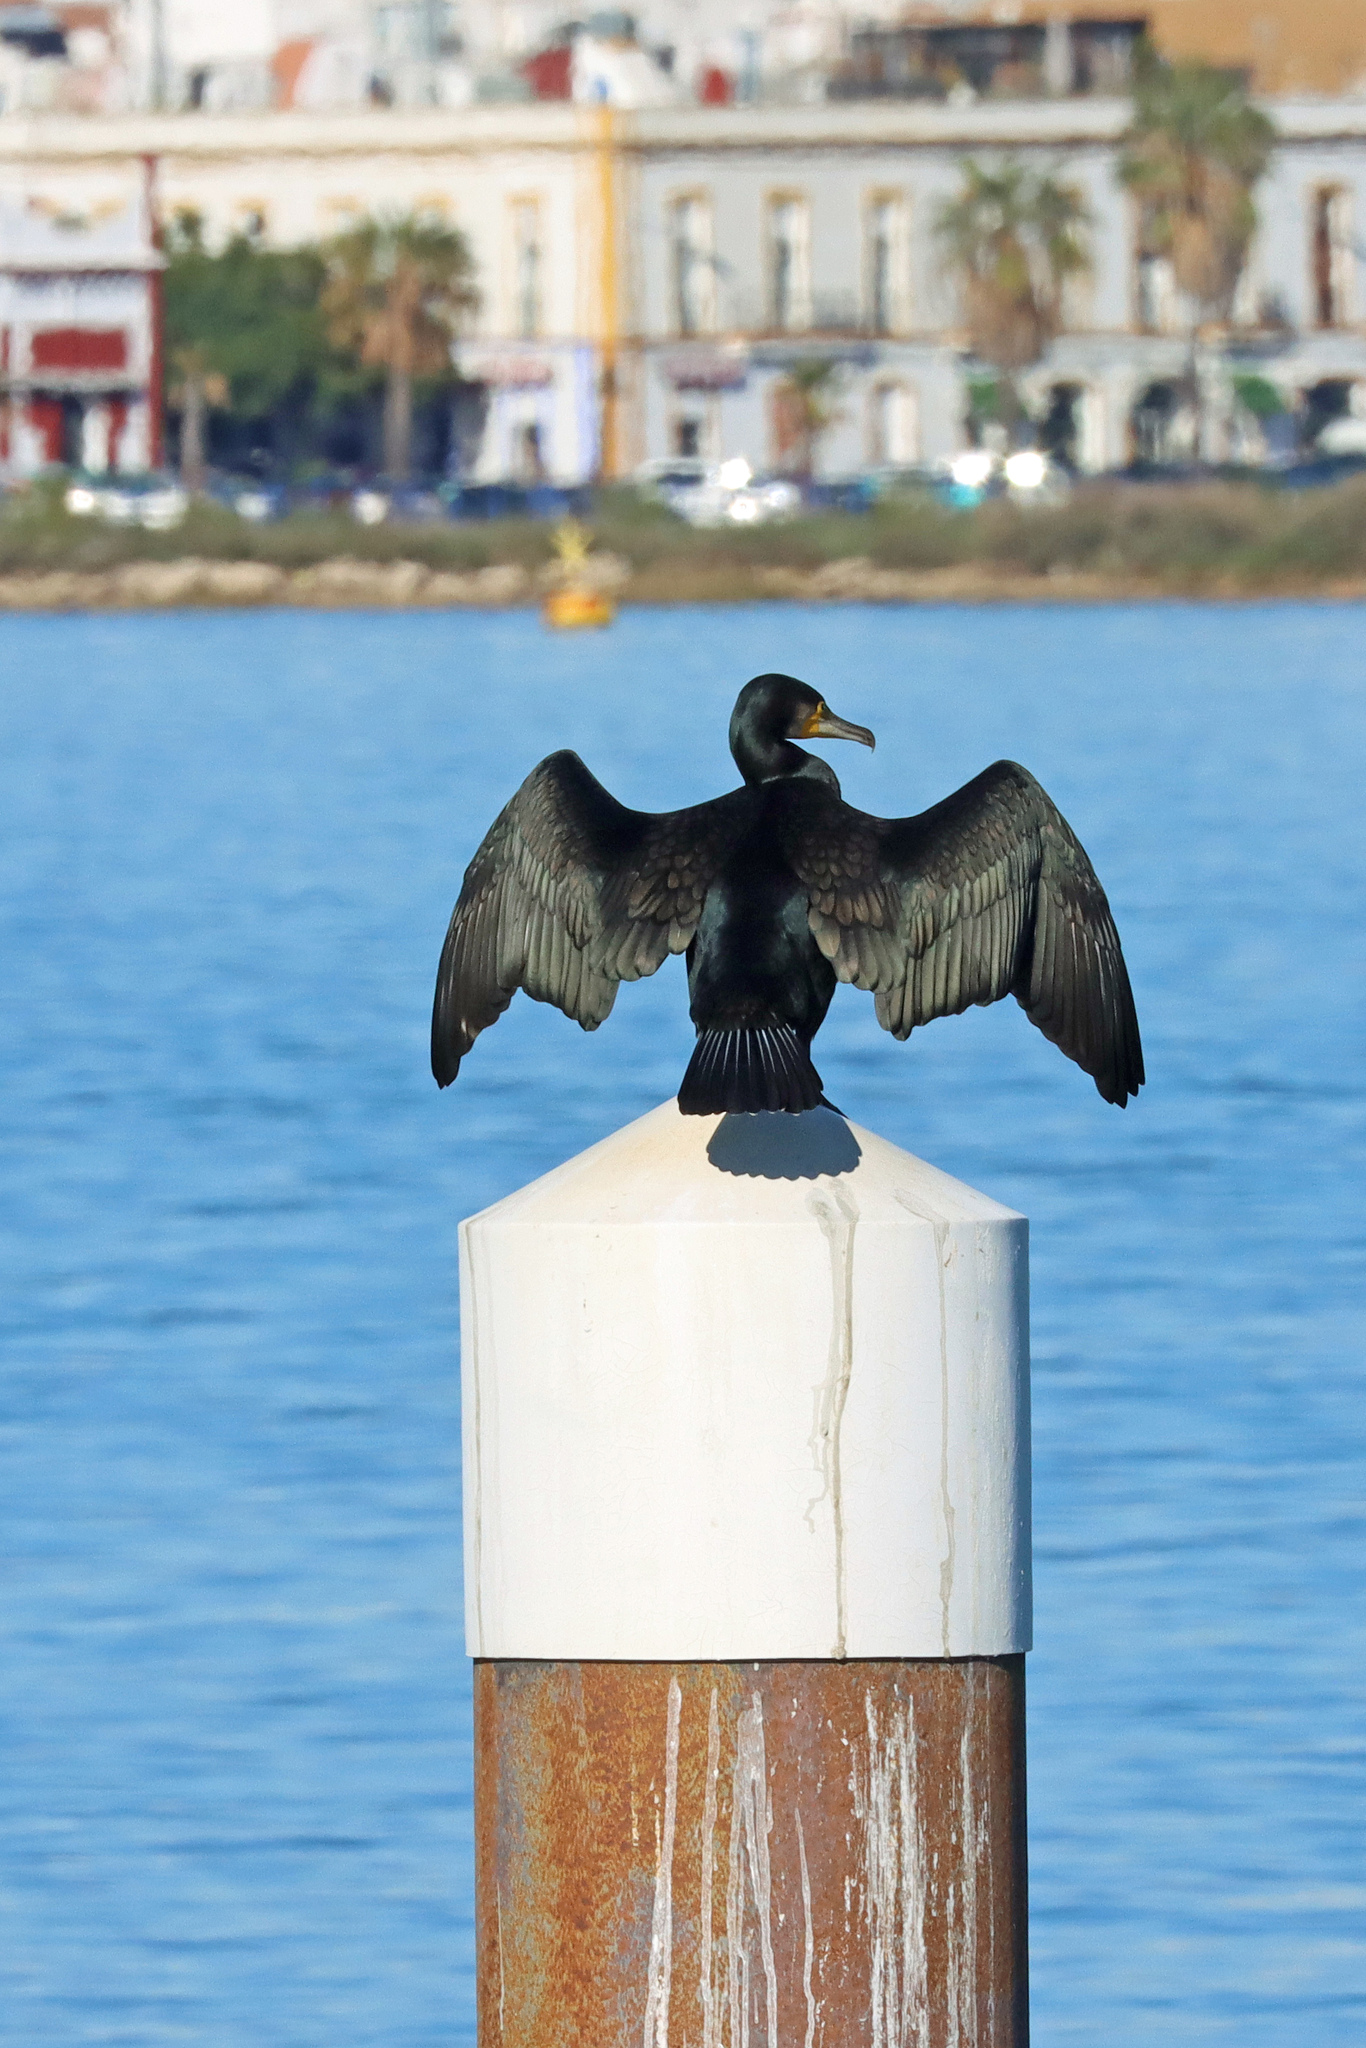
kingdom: Animalia
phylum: Chordata
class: Aves
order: Suliformes
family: Phalacrocoracidae
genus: Phalacrocorax
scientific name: Phalacrocorax carbo
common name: Great cormorant
